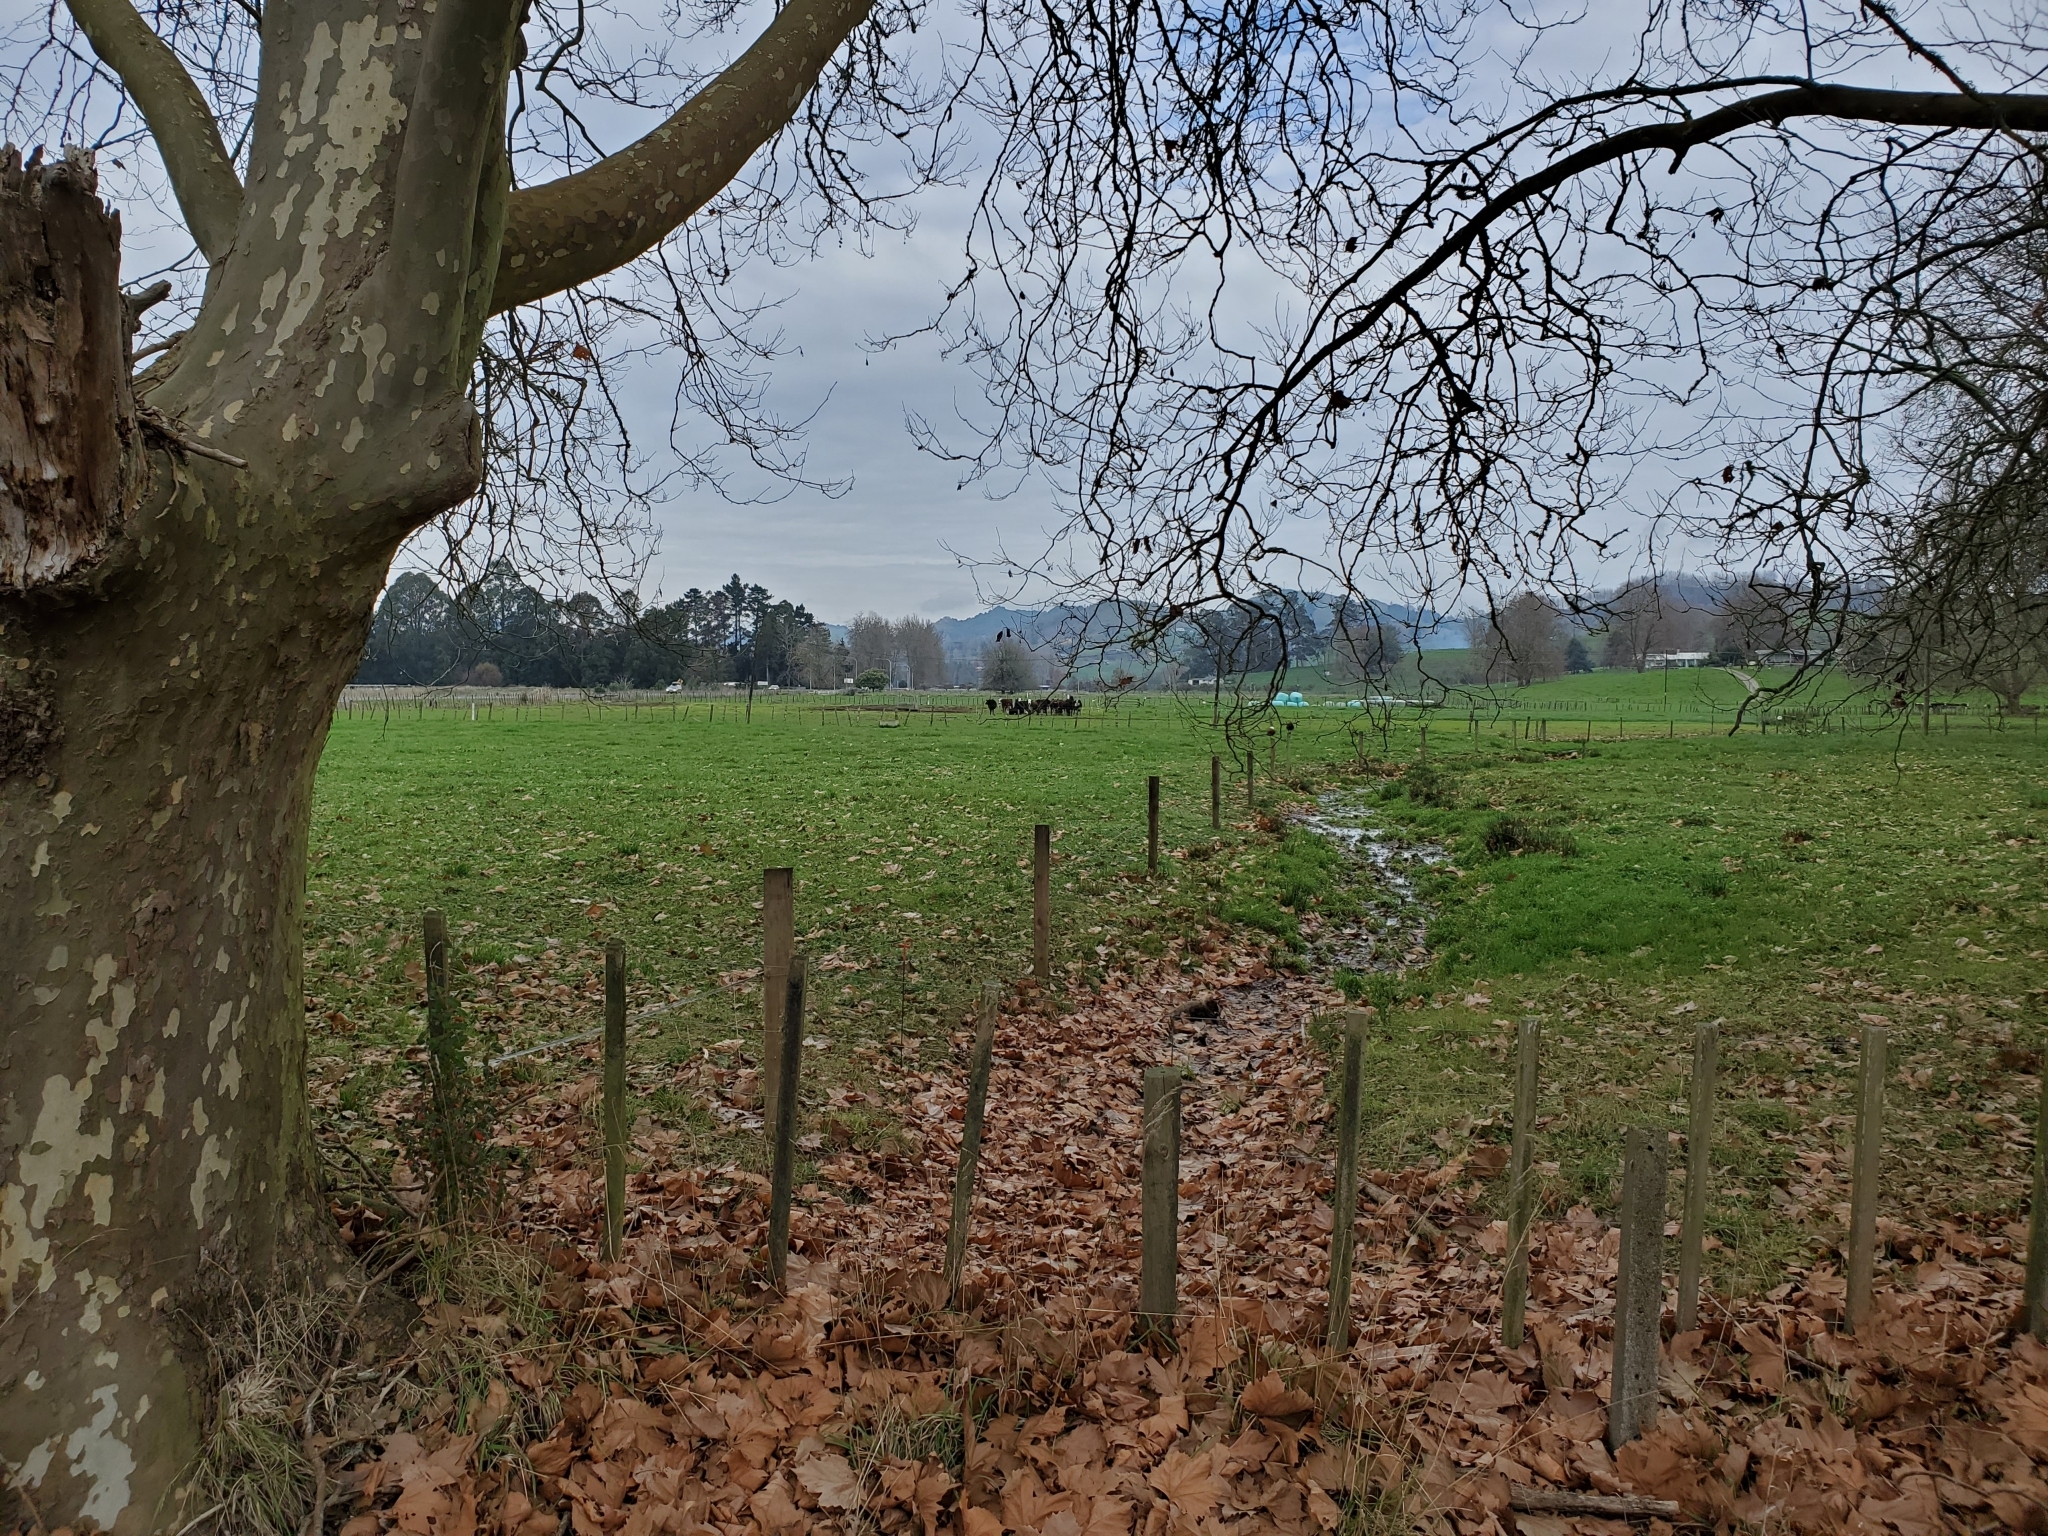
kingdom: Animalia
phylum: Chordata
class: Aves
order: Pelecaniformes
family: Ardeidae
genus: Bubulcus
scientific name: Bubulcus coromandus
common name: Eastern cattle egret
